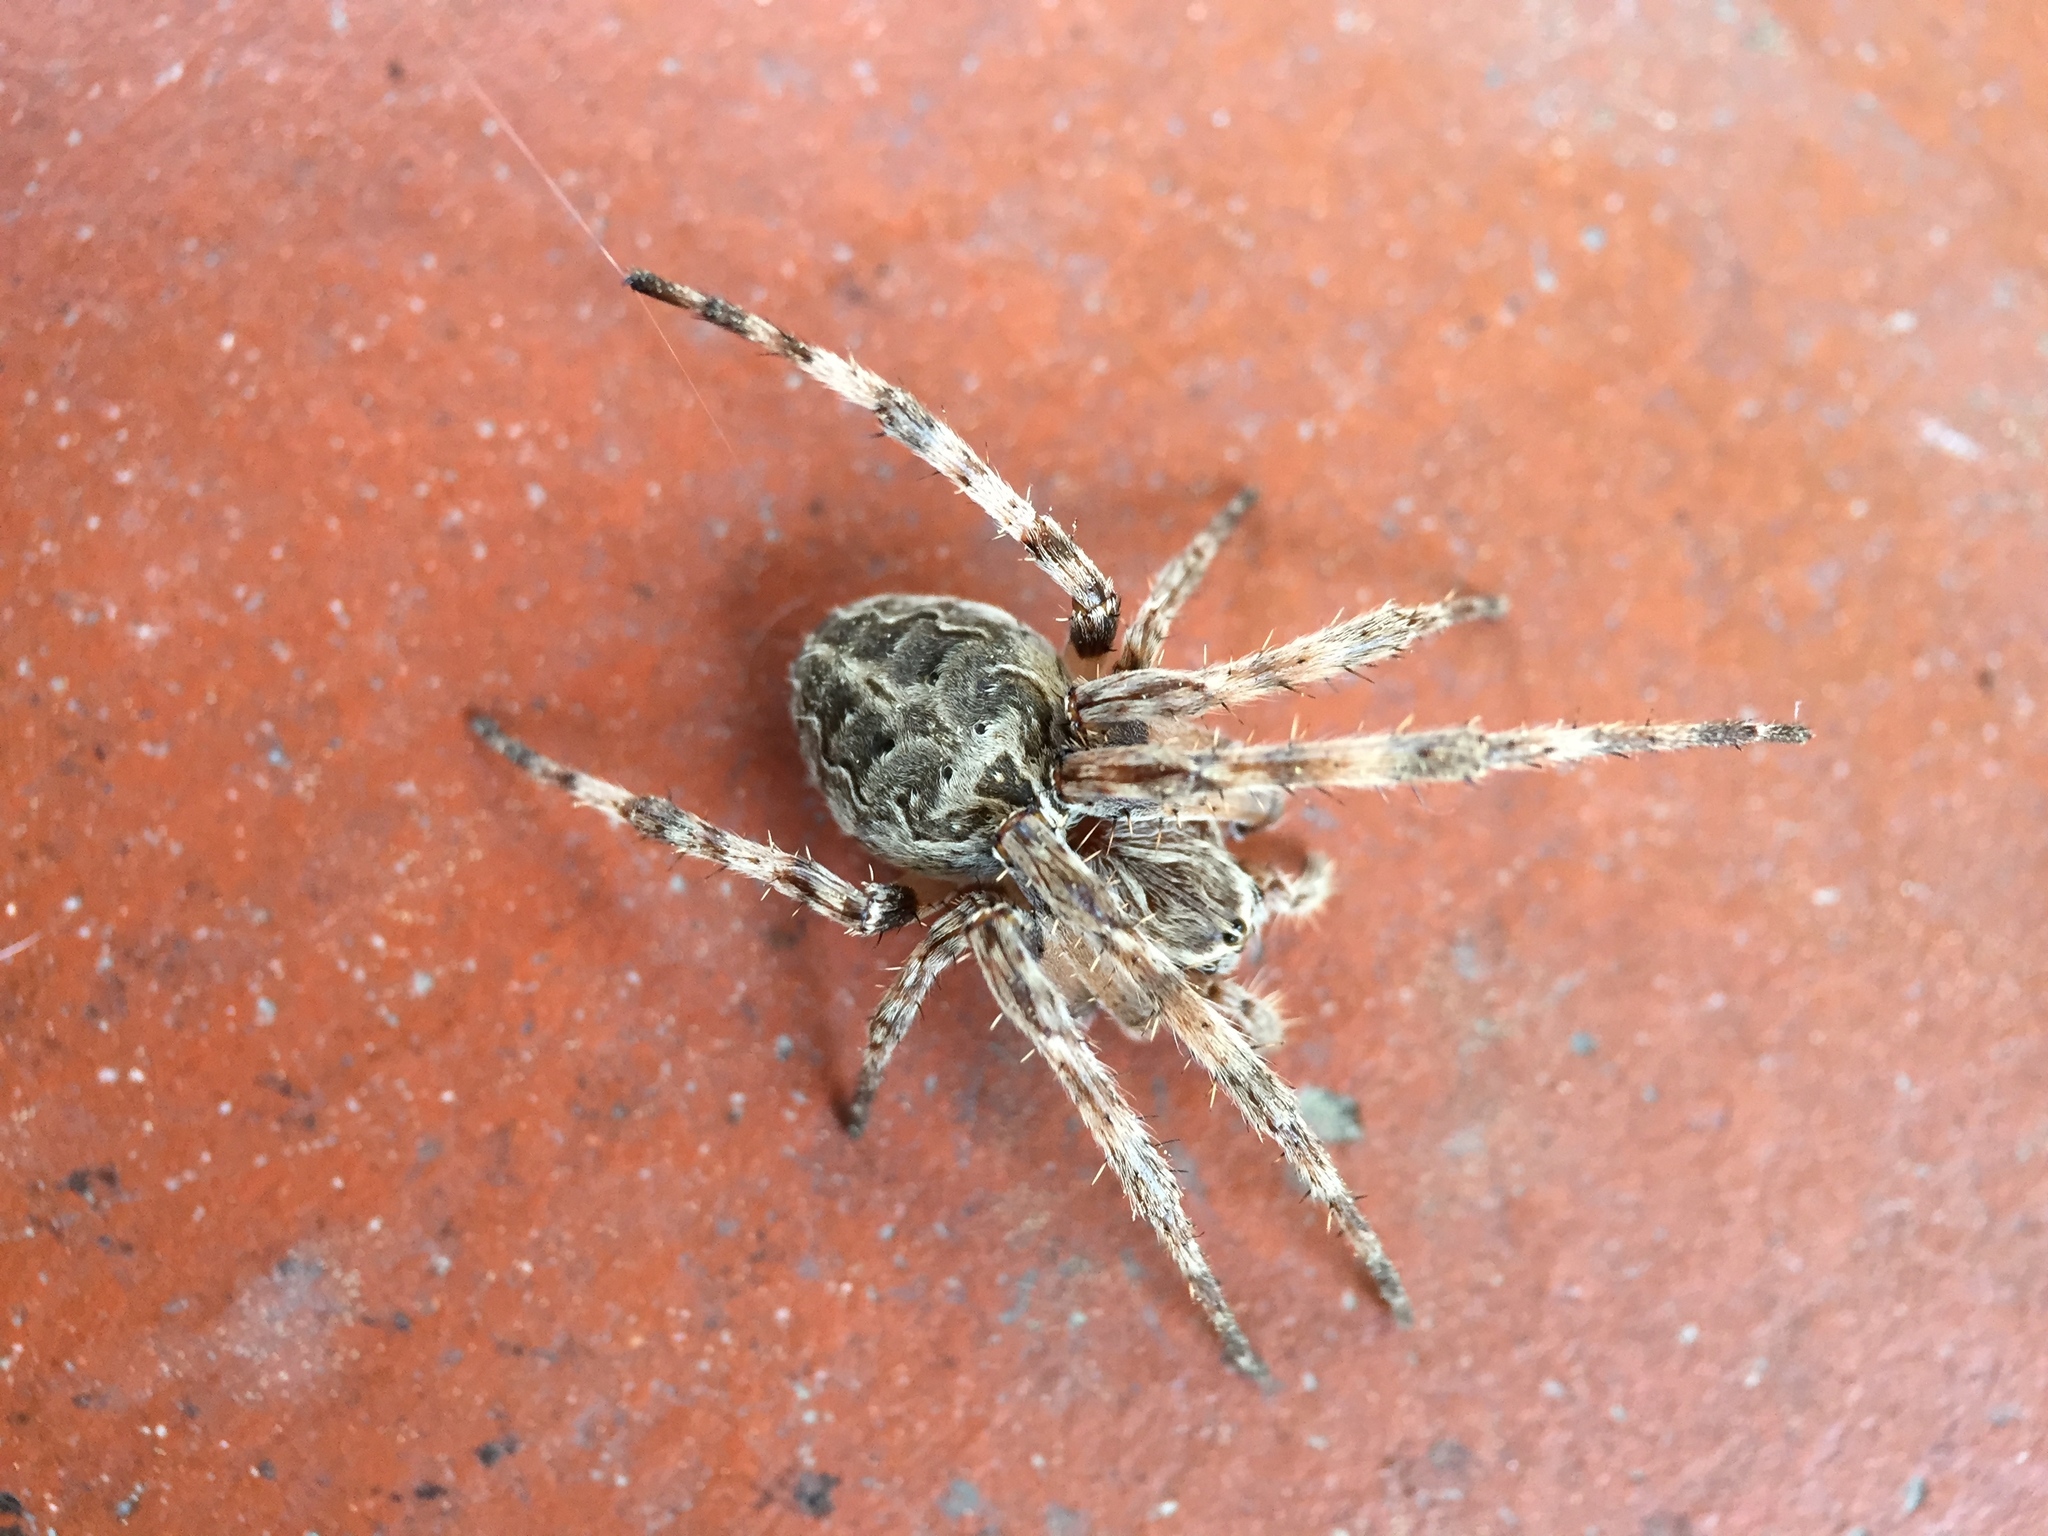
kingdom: Animalia
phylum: Arthropoda
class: Arachnida
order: Araneae
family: Araneidae
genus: Larinioides
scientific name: Larinioides sclopetarius
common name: Bridge orbweaver
